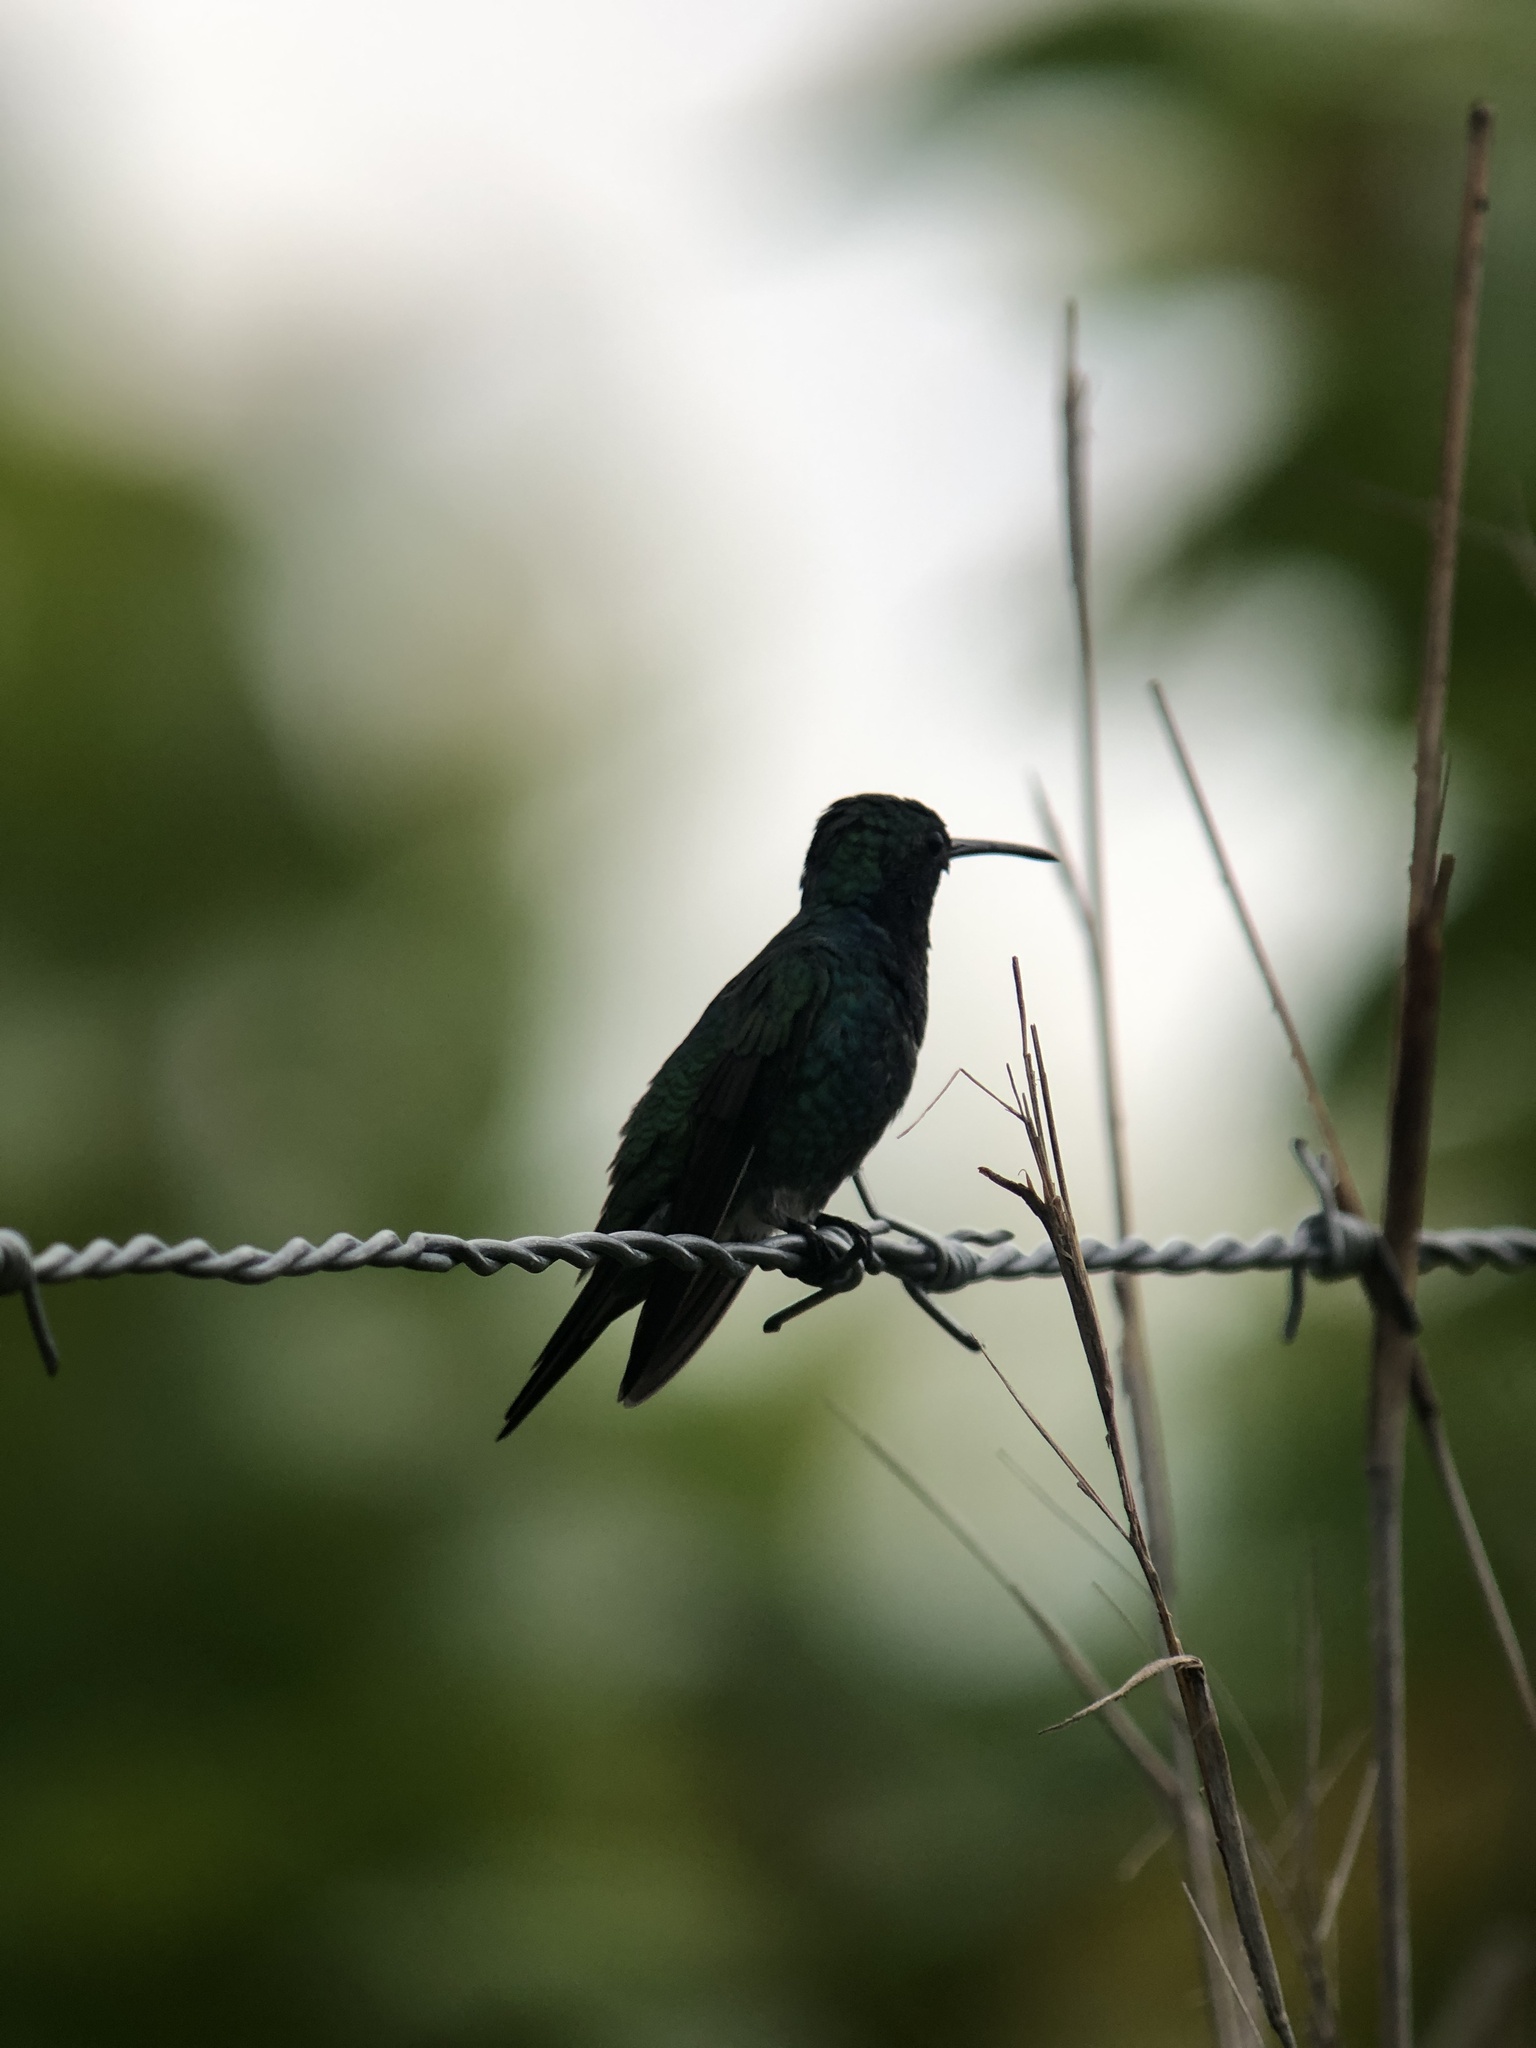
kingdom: Animalia
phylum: Chordata
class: Aves
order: Apodiformes
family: Trochilidae
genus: Chrysuronia
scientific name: Chrysuronia coeruleogularis
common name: Sapphire-throated hummingbird
